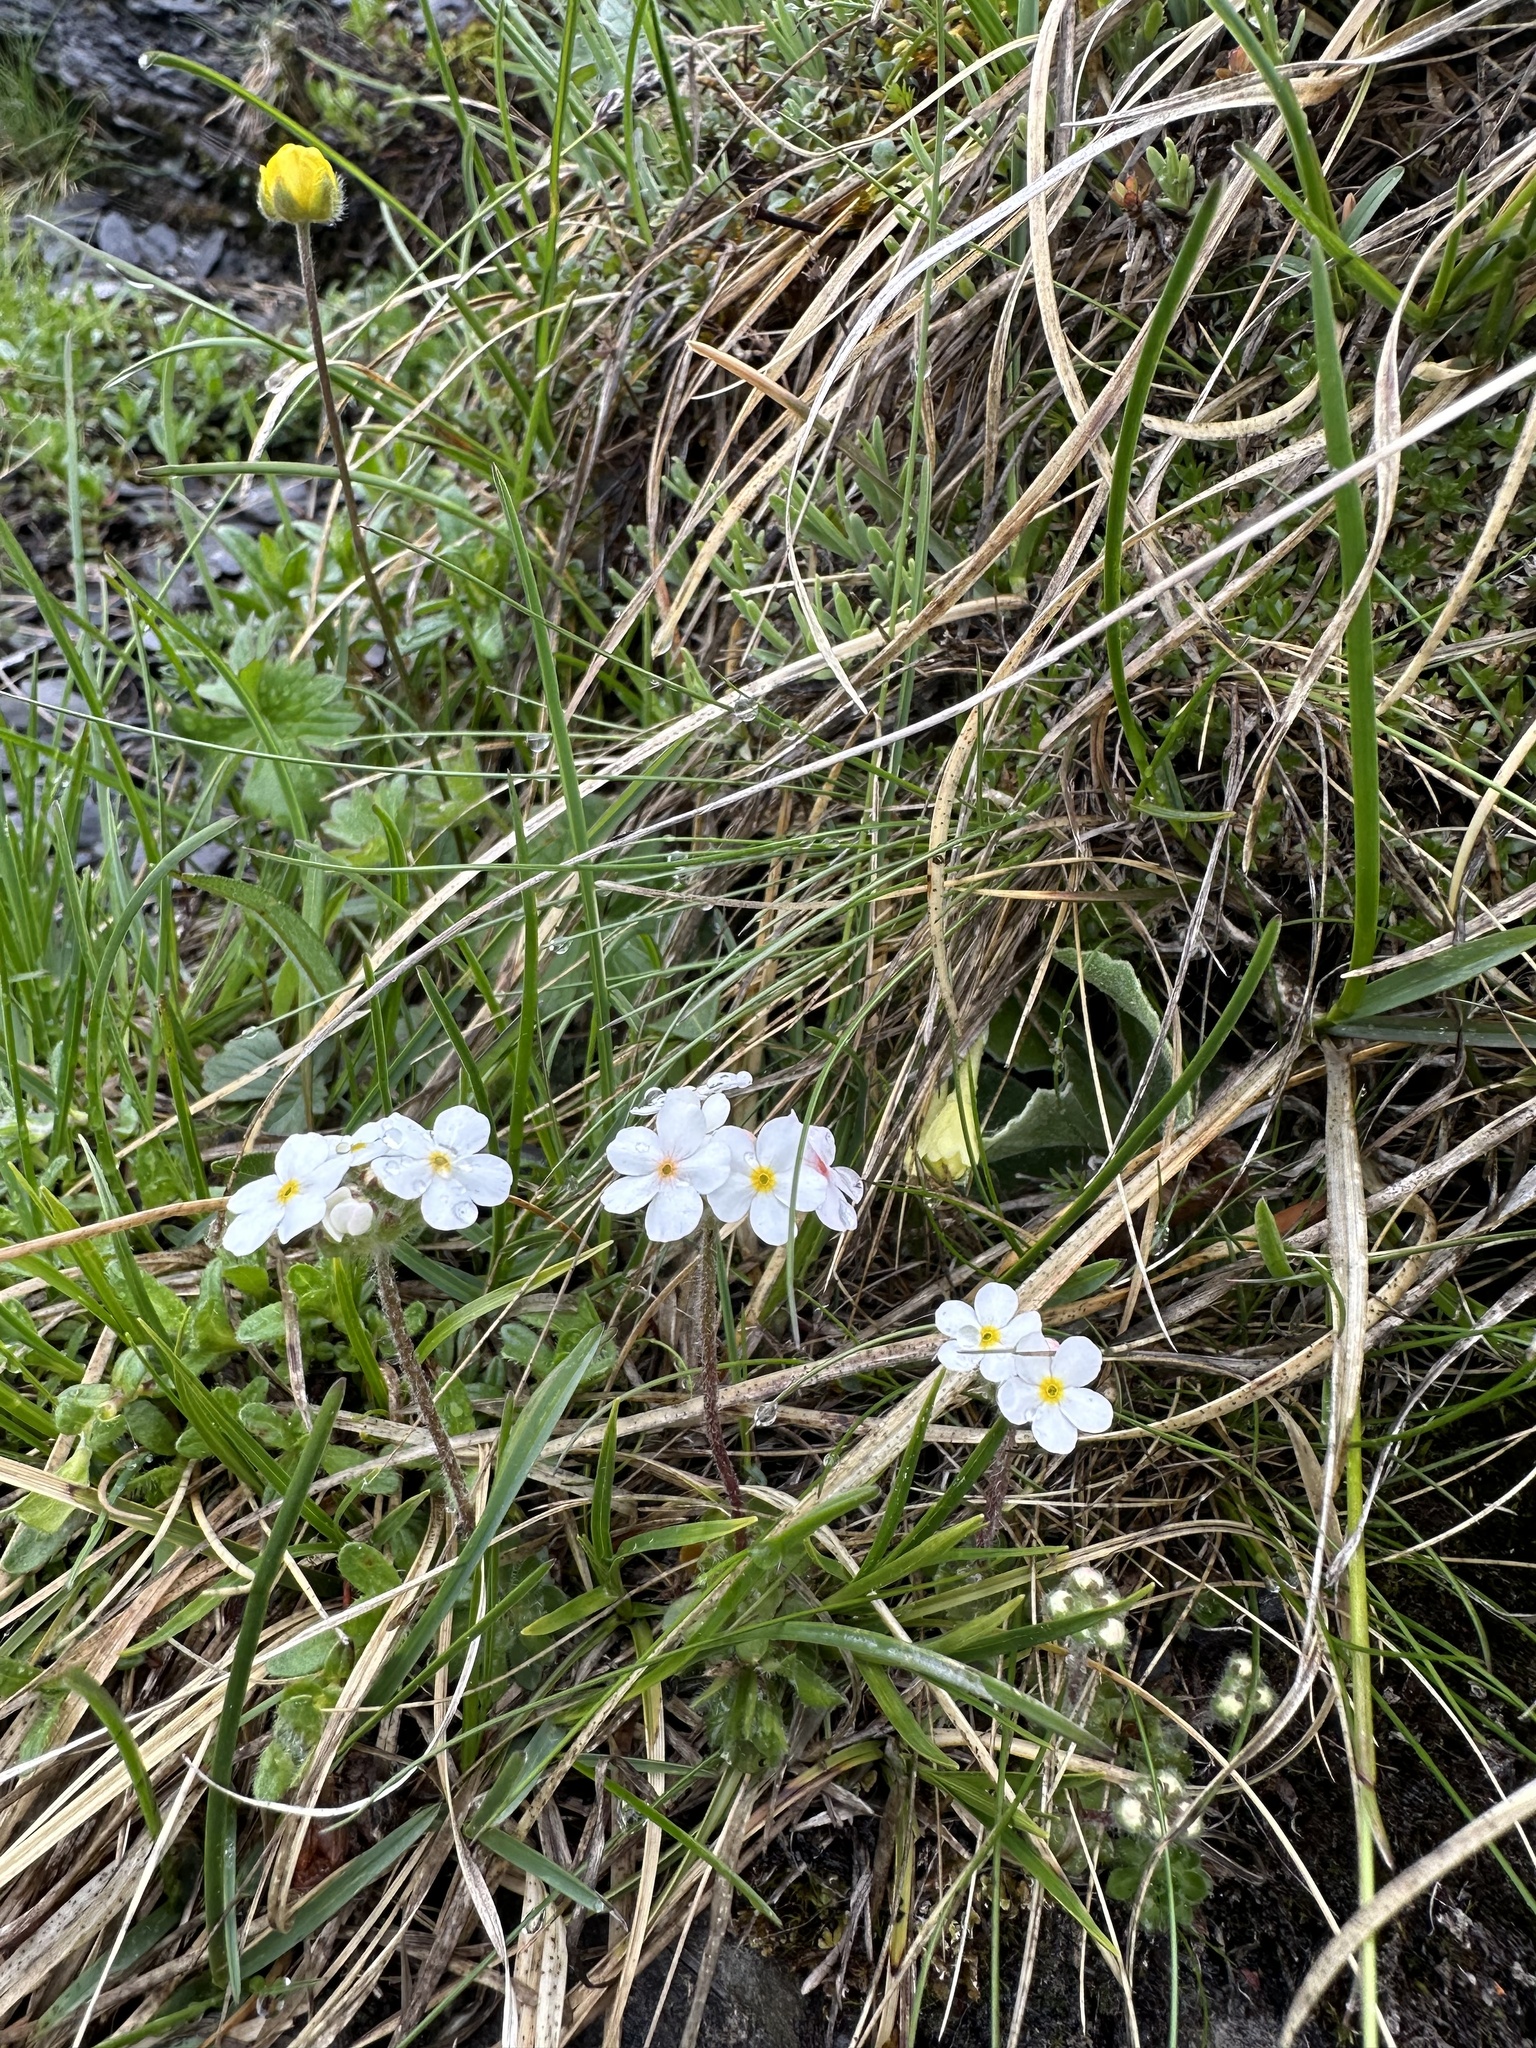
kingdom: Plantae
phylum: Tracheophyta
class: Magnoliopsida
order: Ericales
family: Primulaceae
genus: Androsace
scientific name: Androsace chamaejasme
